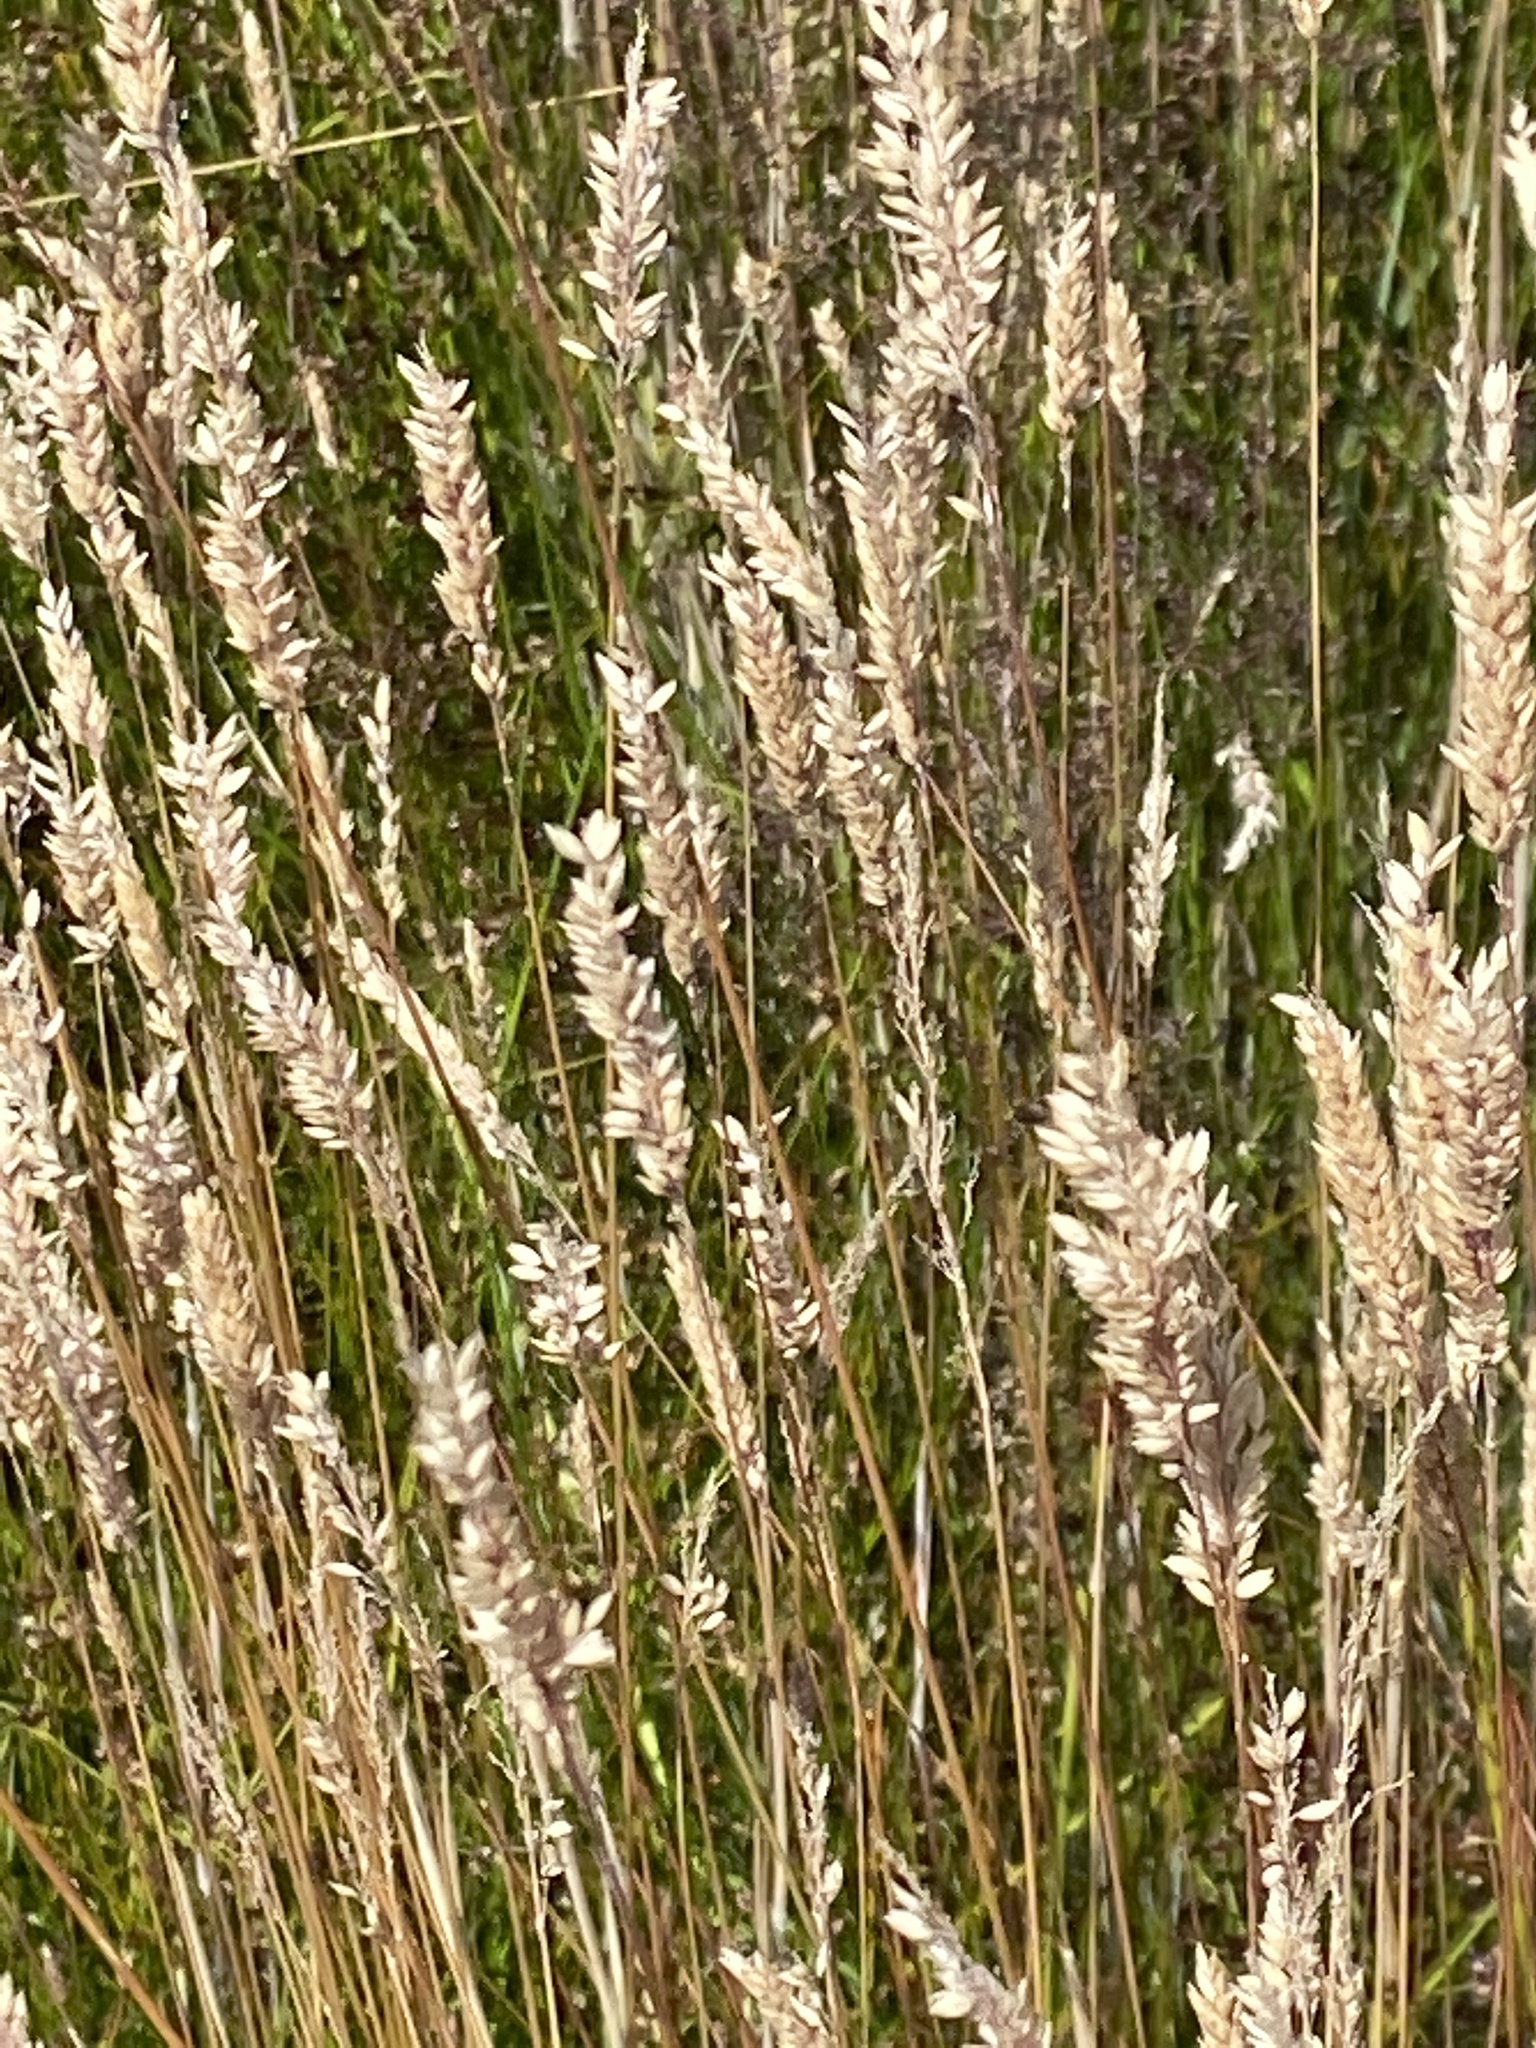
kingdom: Plantae
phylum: Tracheophyta
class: Liliopsida
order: Poales
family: Poaceae
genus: Holcus
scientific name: Holcus lanatus
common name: Yorkshire-fog
